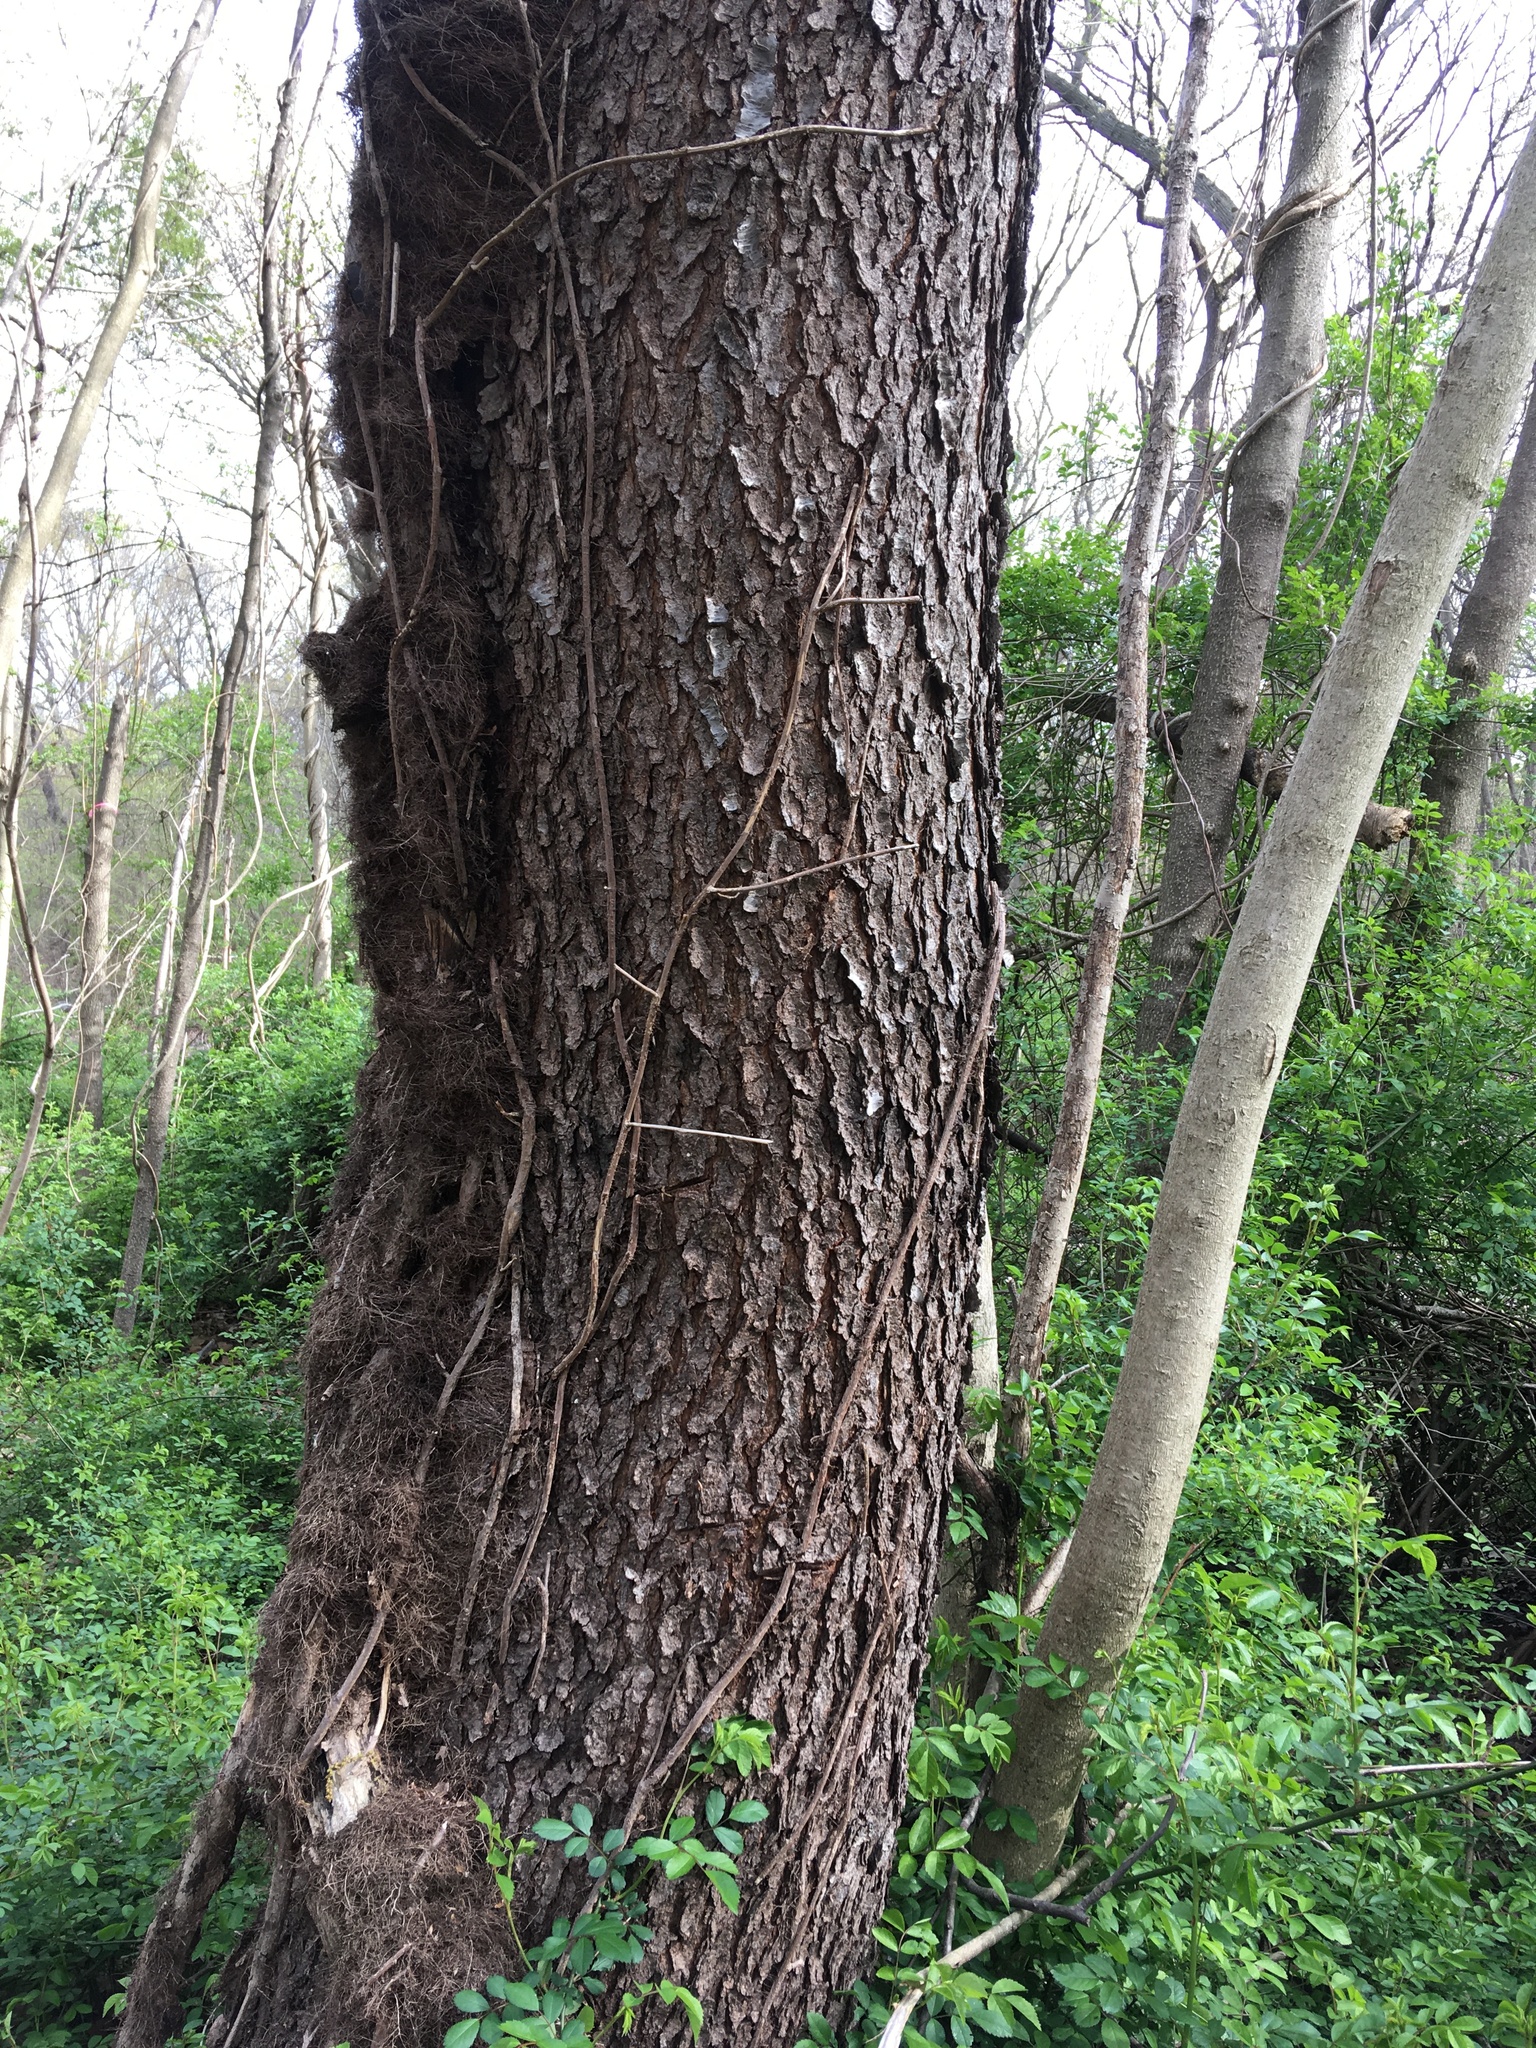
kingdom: Plantae
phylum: Tracheophyta
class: Magnoliopsida
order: Rosales
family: Rosaceae
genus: Prunus
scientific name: Prunus serotina
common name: Black cherry
